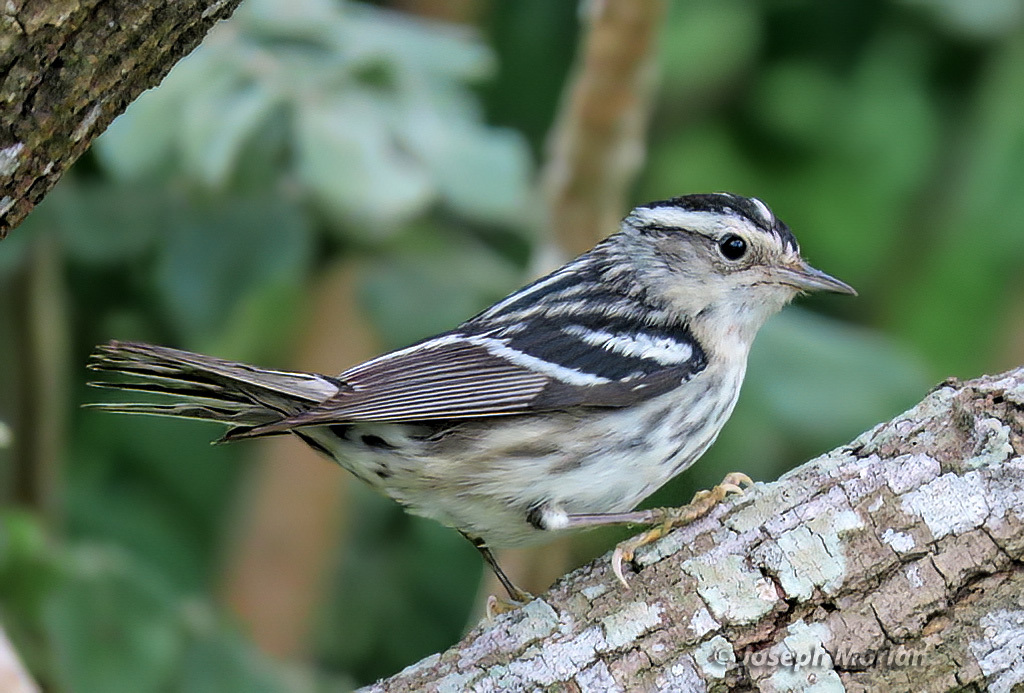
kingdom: Animalia
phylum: Chordata
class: Aves
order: Passeriformes
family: Parulidae
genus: Mniotilta
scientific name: Mniotilta varia
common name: Black-and-white warbler
